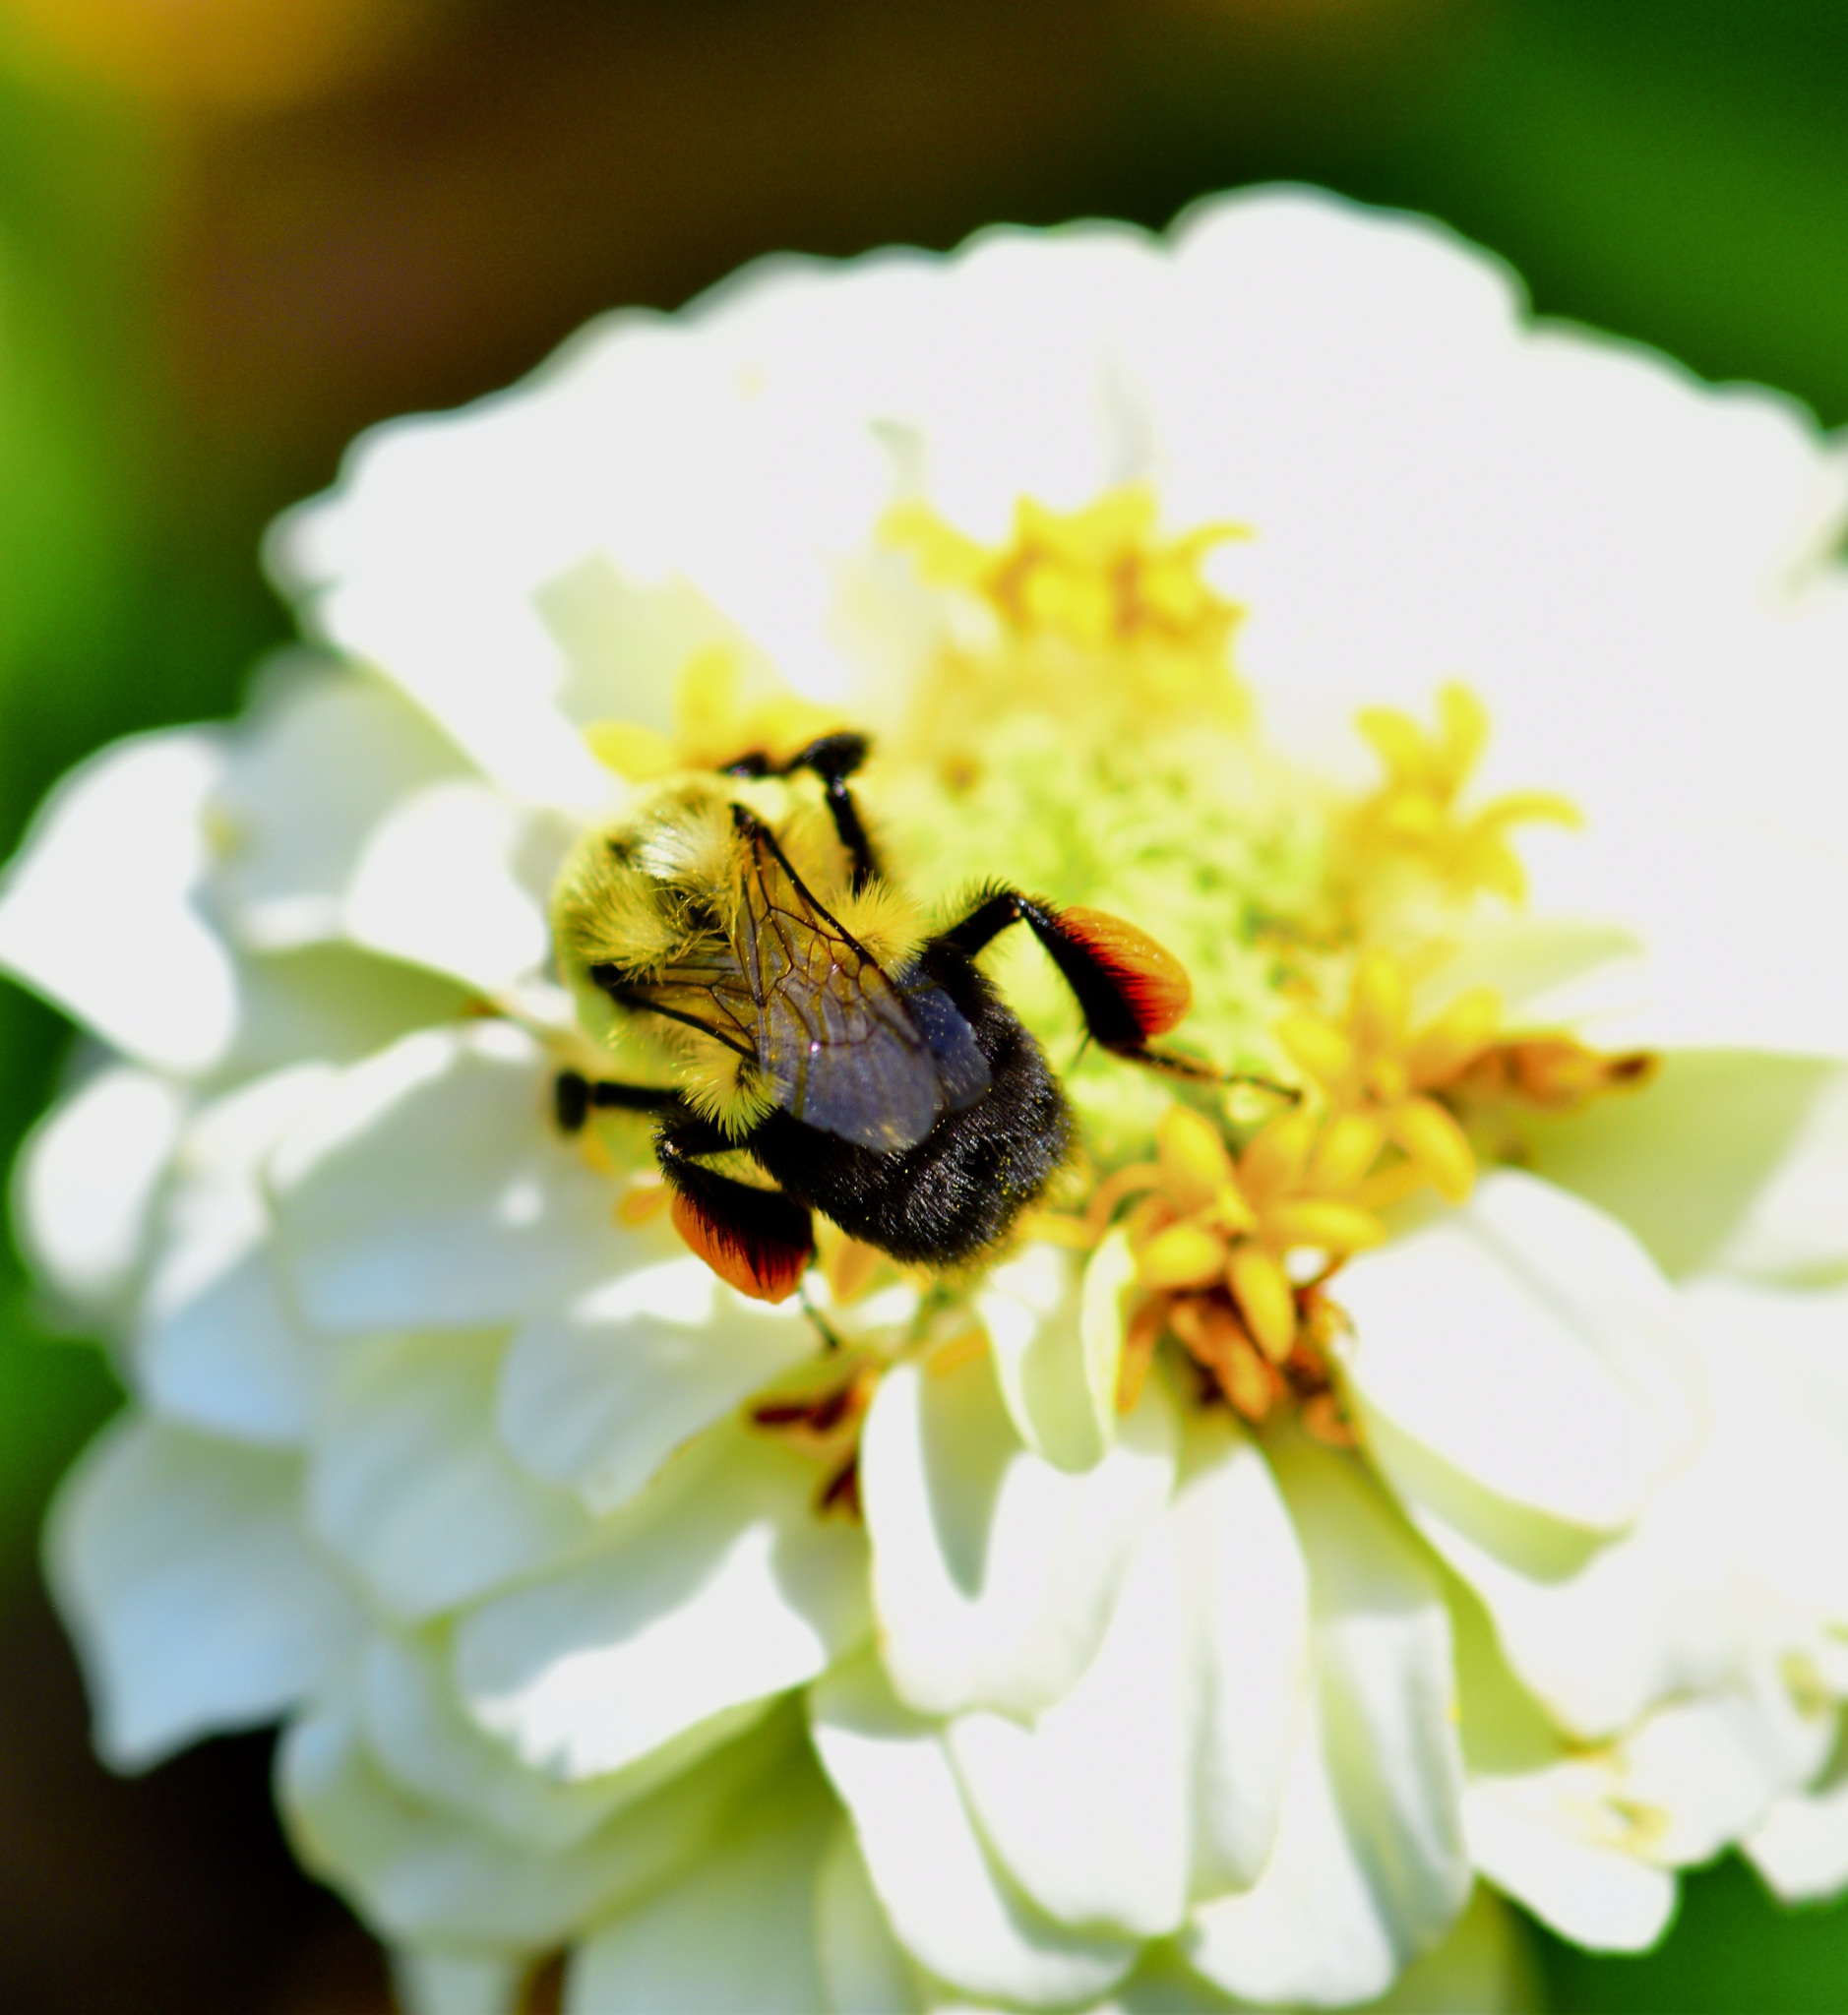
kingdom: Animalia
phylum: Arthropoda
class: Insecta
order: Hymenoptera
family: Apidae
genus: Bombus
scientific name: Bombus impatiens
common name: Common eastern bumble bee
